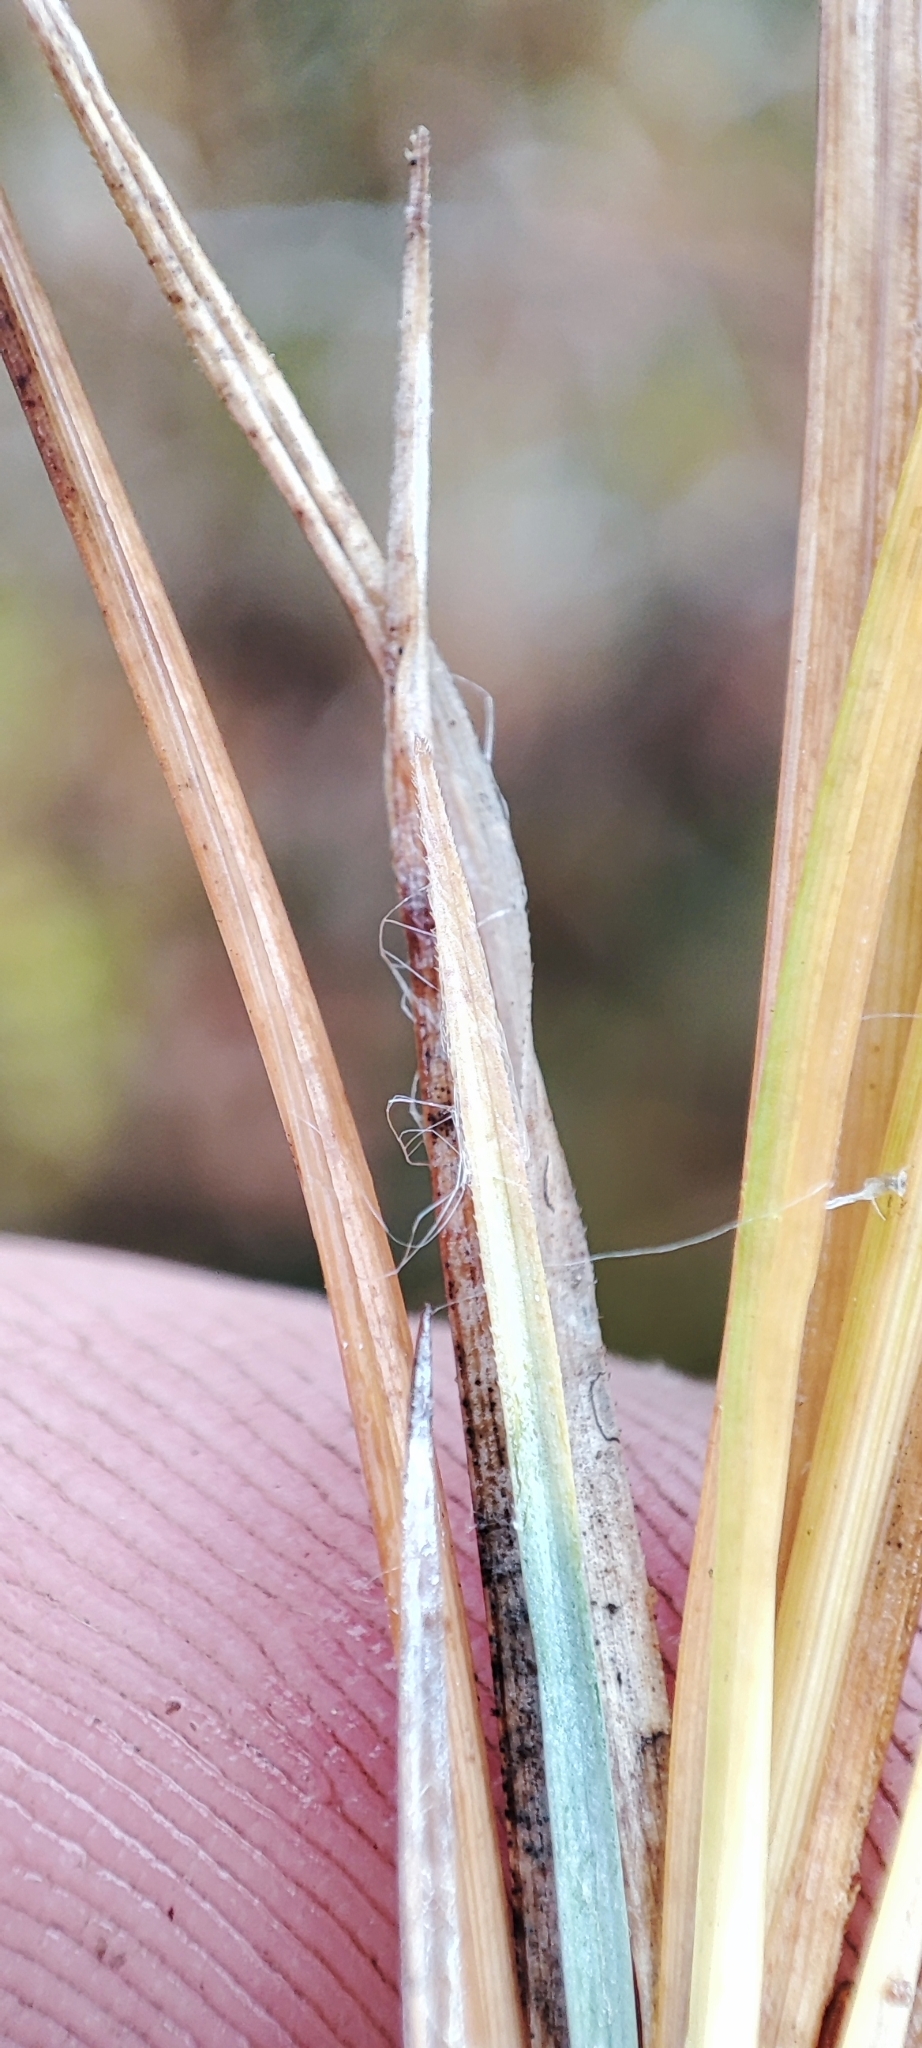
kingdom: Plantae
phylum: Tracheophyta
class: Liliopsida
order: Poales
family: Cyperaceae
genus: Carex
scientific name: Carex magellanica
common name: Bog sedge
